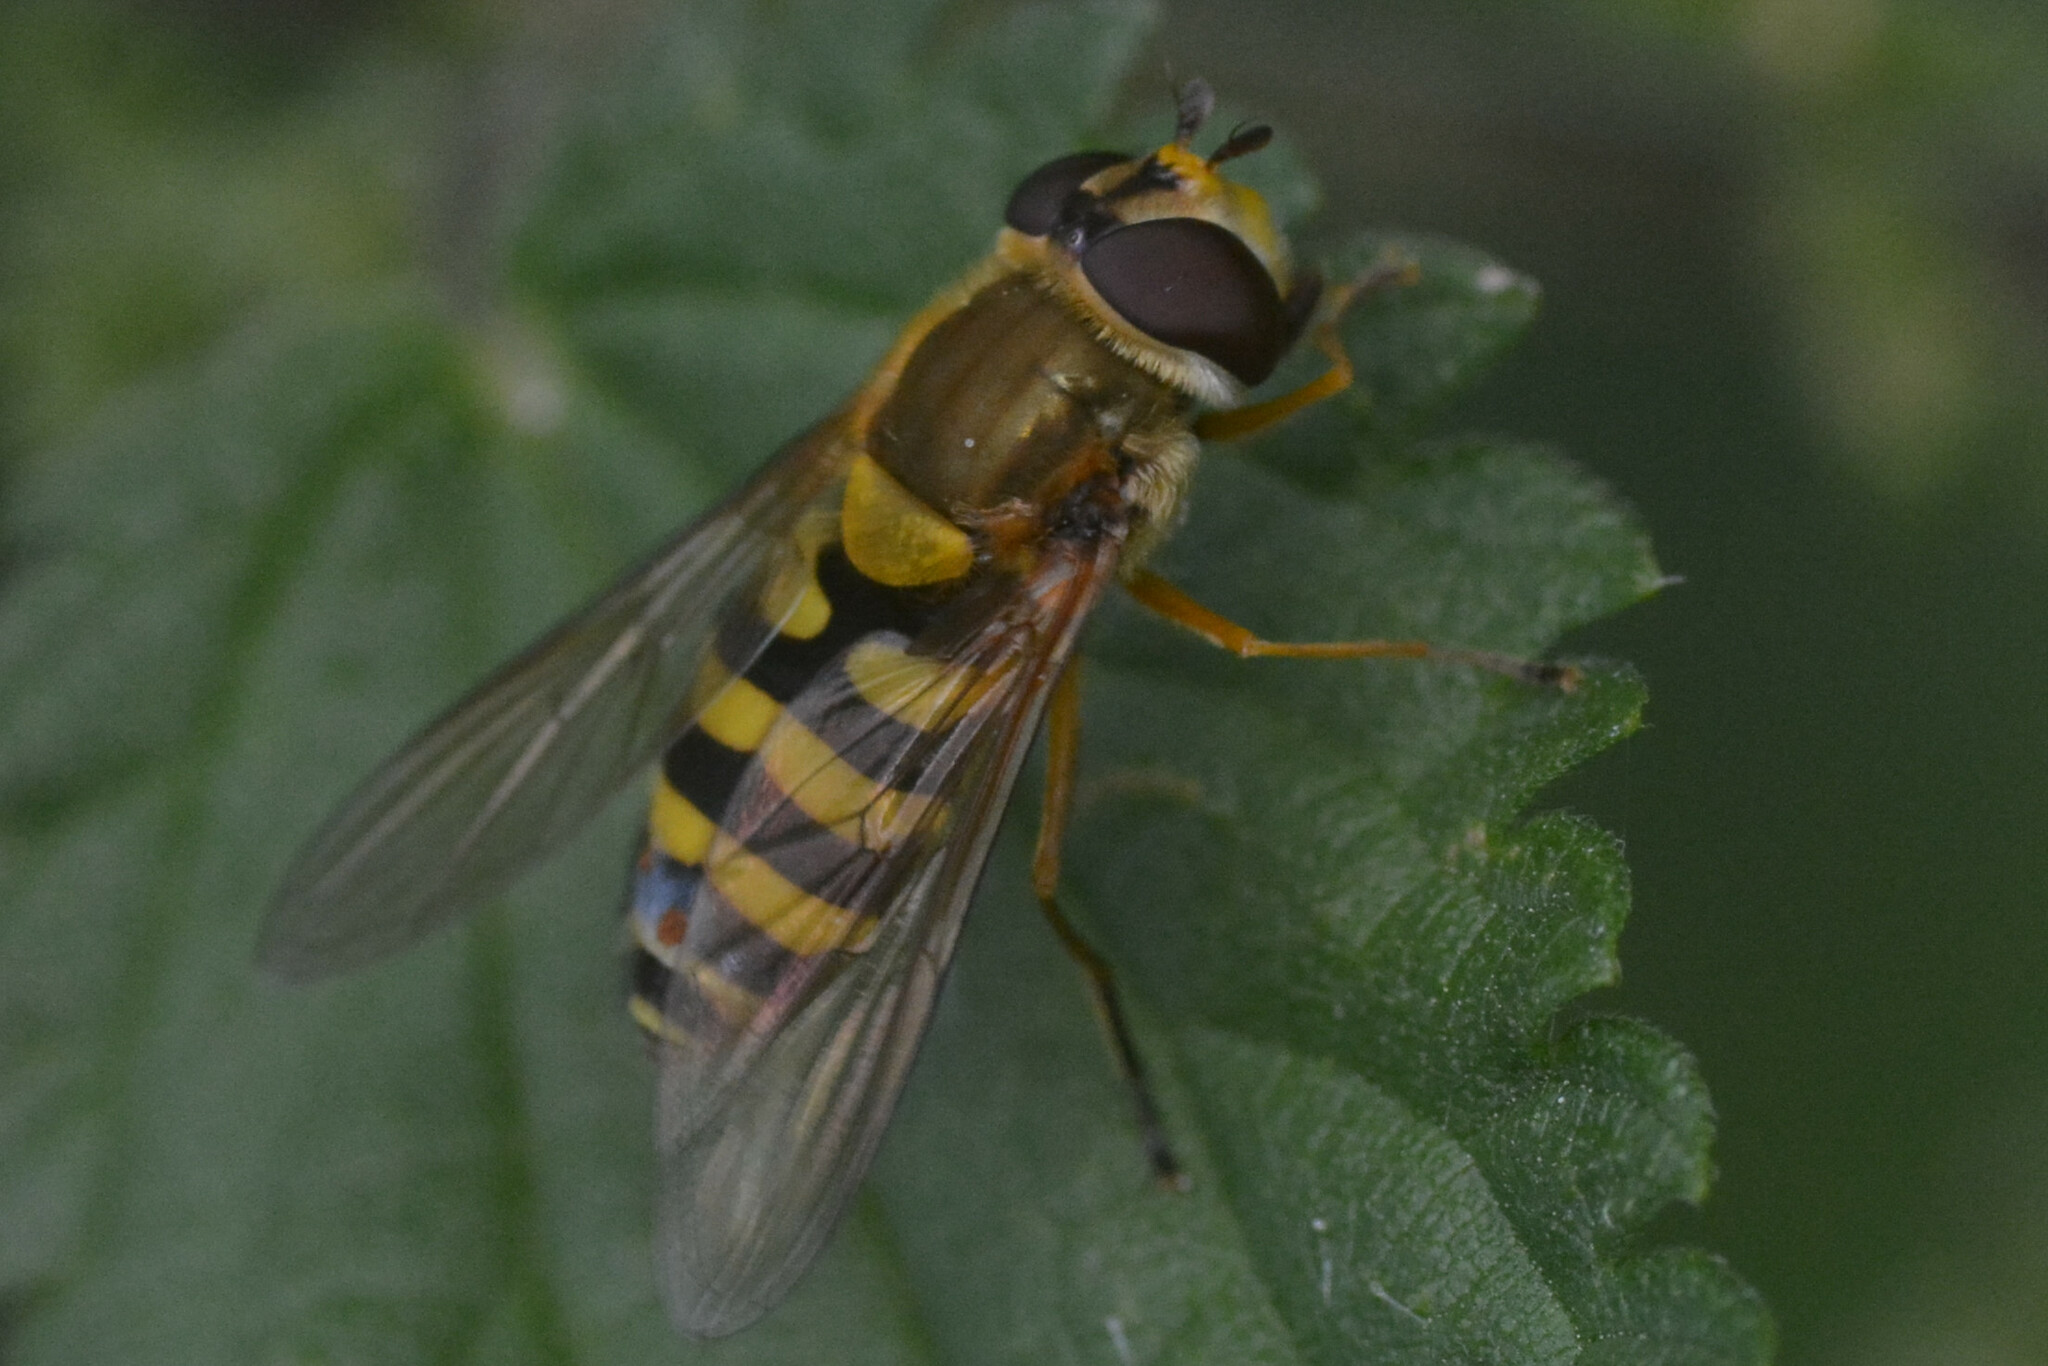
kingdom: Animalia
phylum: Arthropoda
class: Insecta
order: Diptera
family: Syrphidae
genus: Syrphus
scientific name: Syrphus ribesii
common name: Common flower fly
